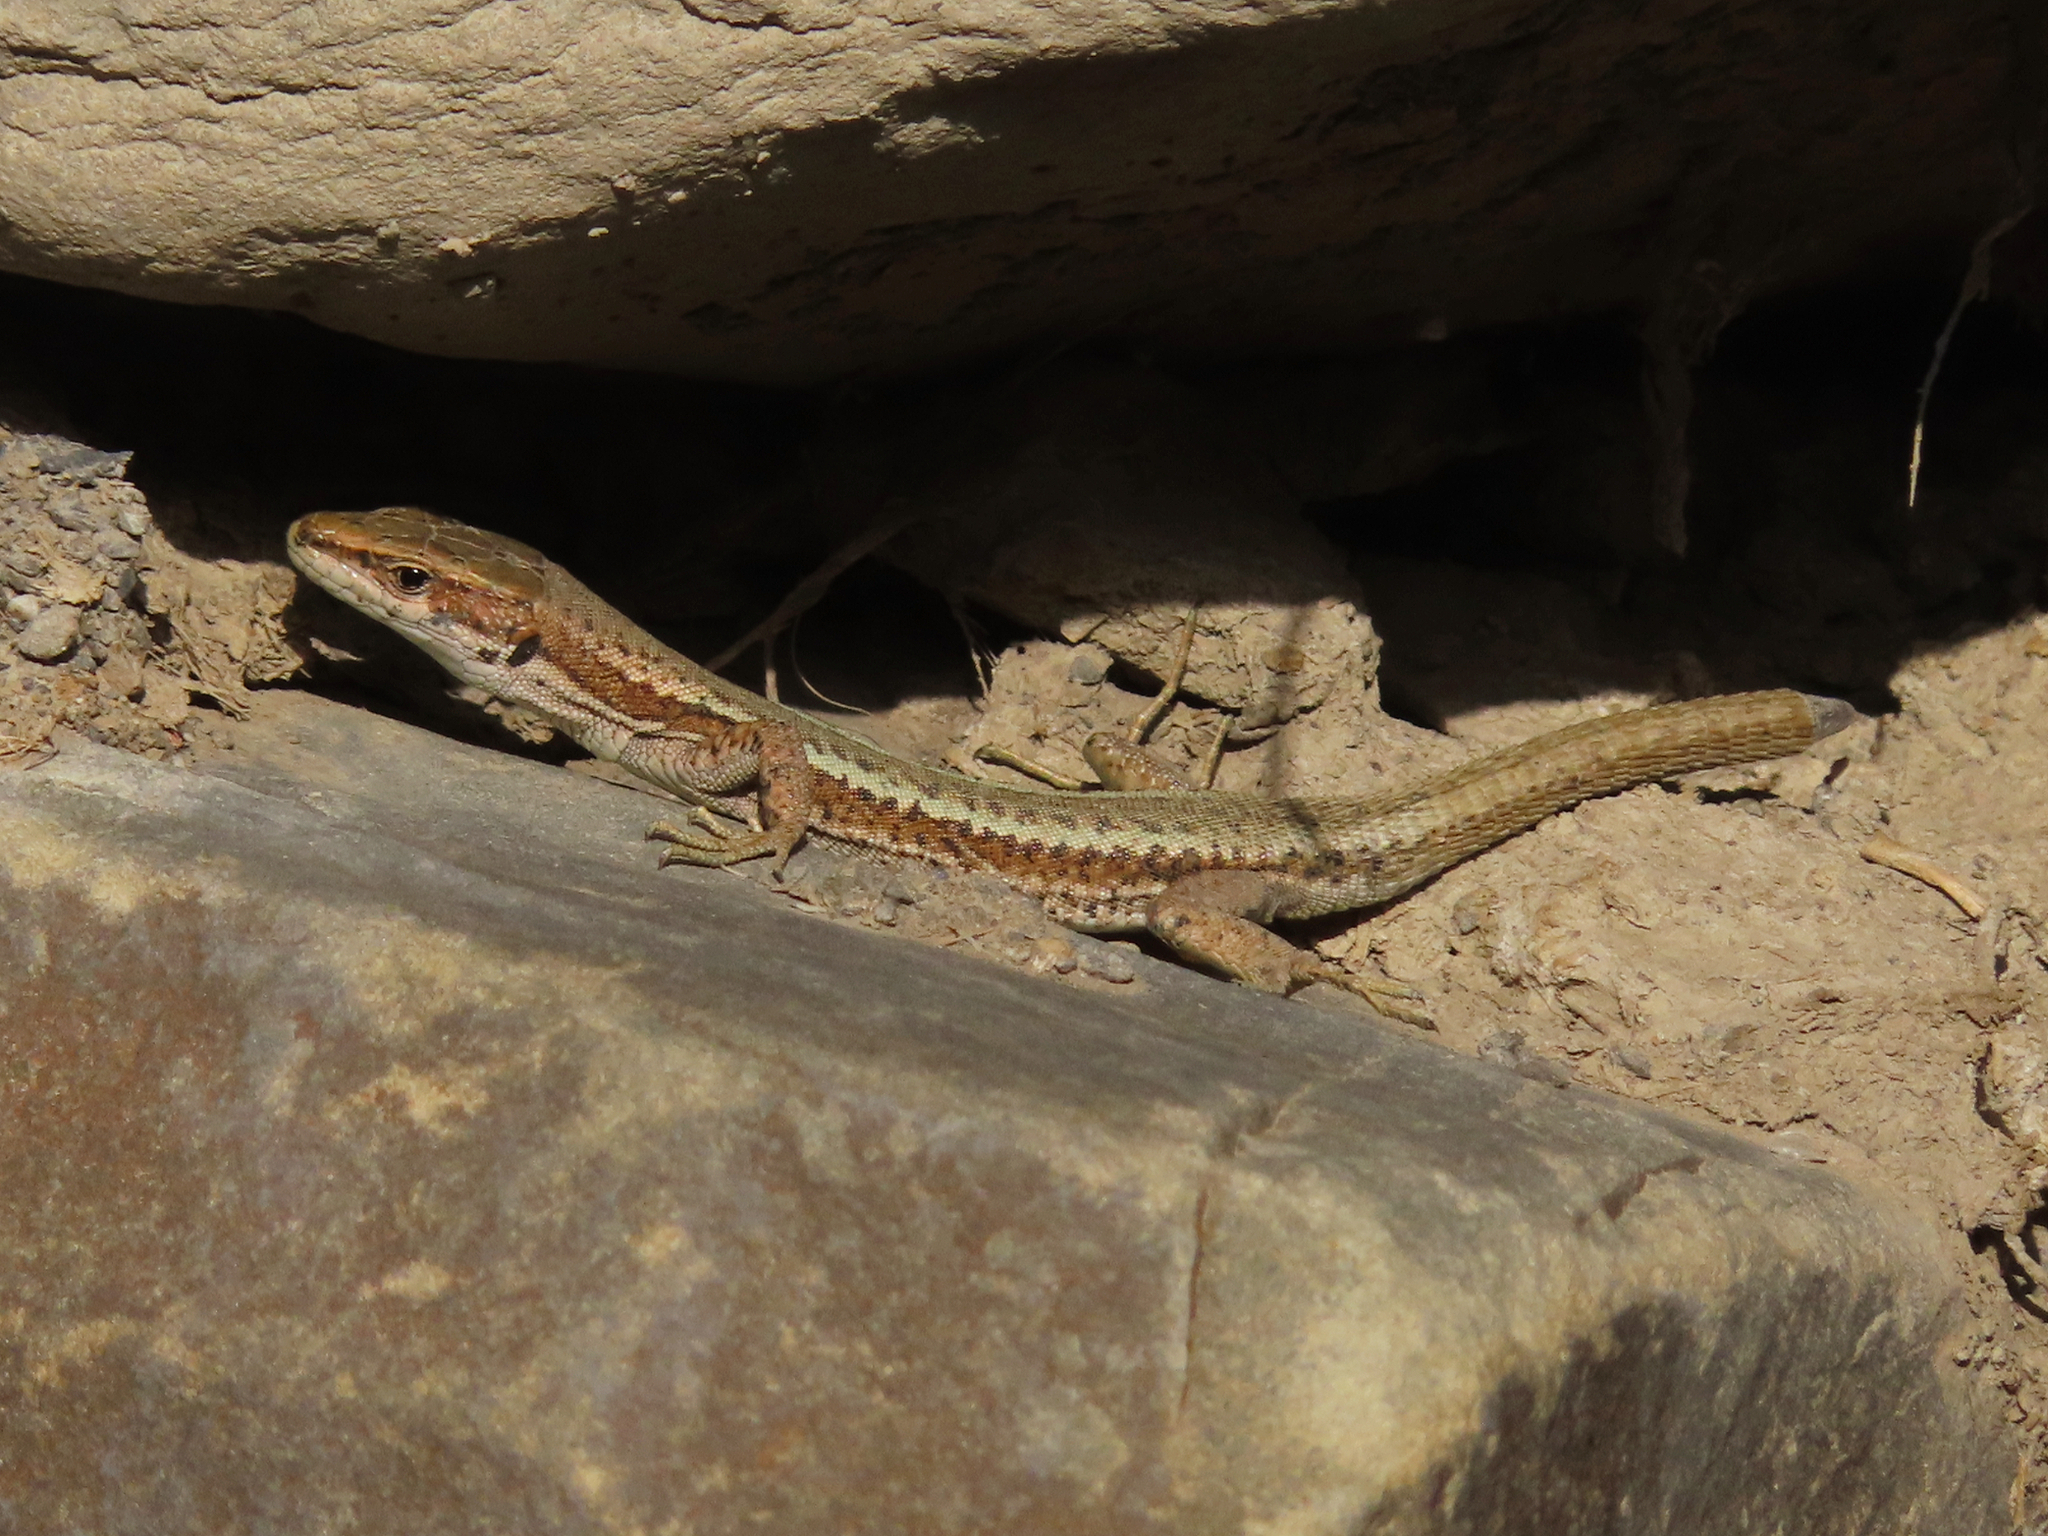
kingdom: Animalia
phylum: Chordata
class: Squamata
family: Lacertidae
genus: Darevskia
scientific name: Darevskia daghestanica
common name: Dagestan lizard
